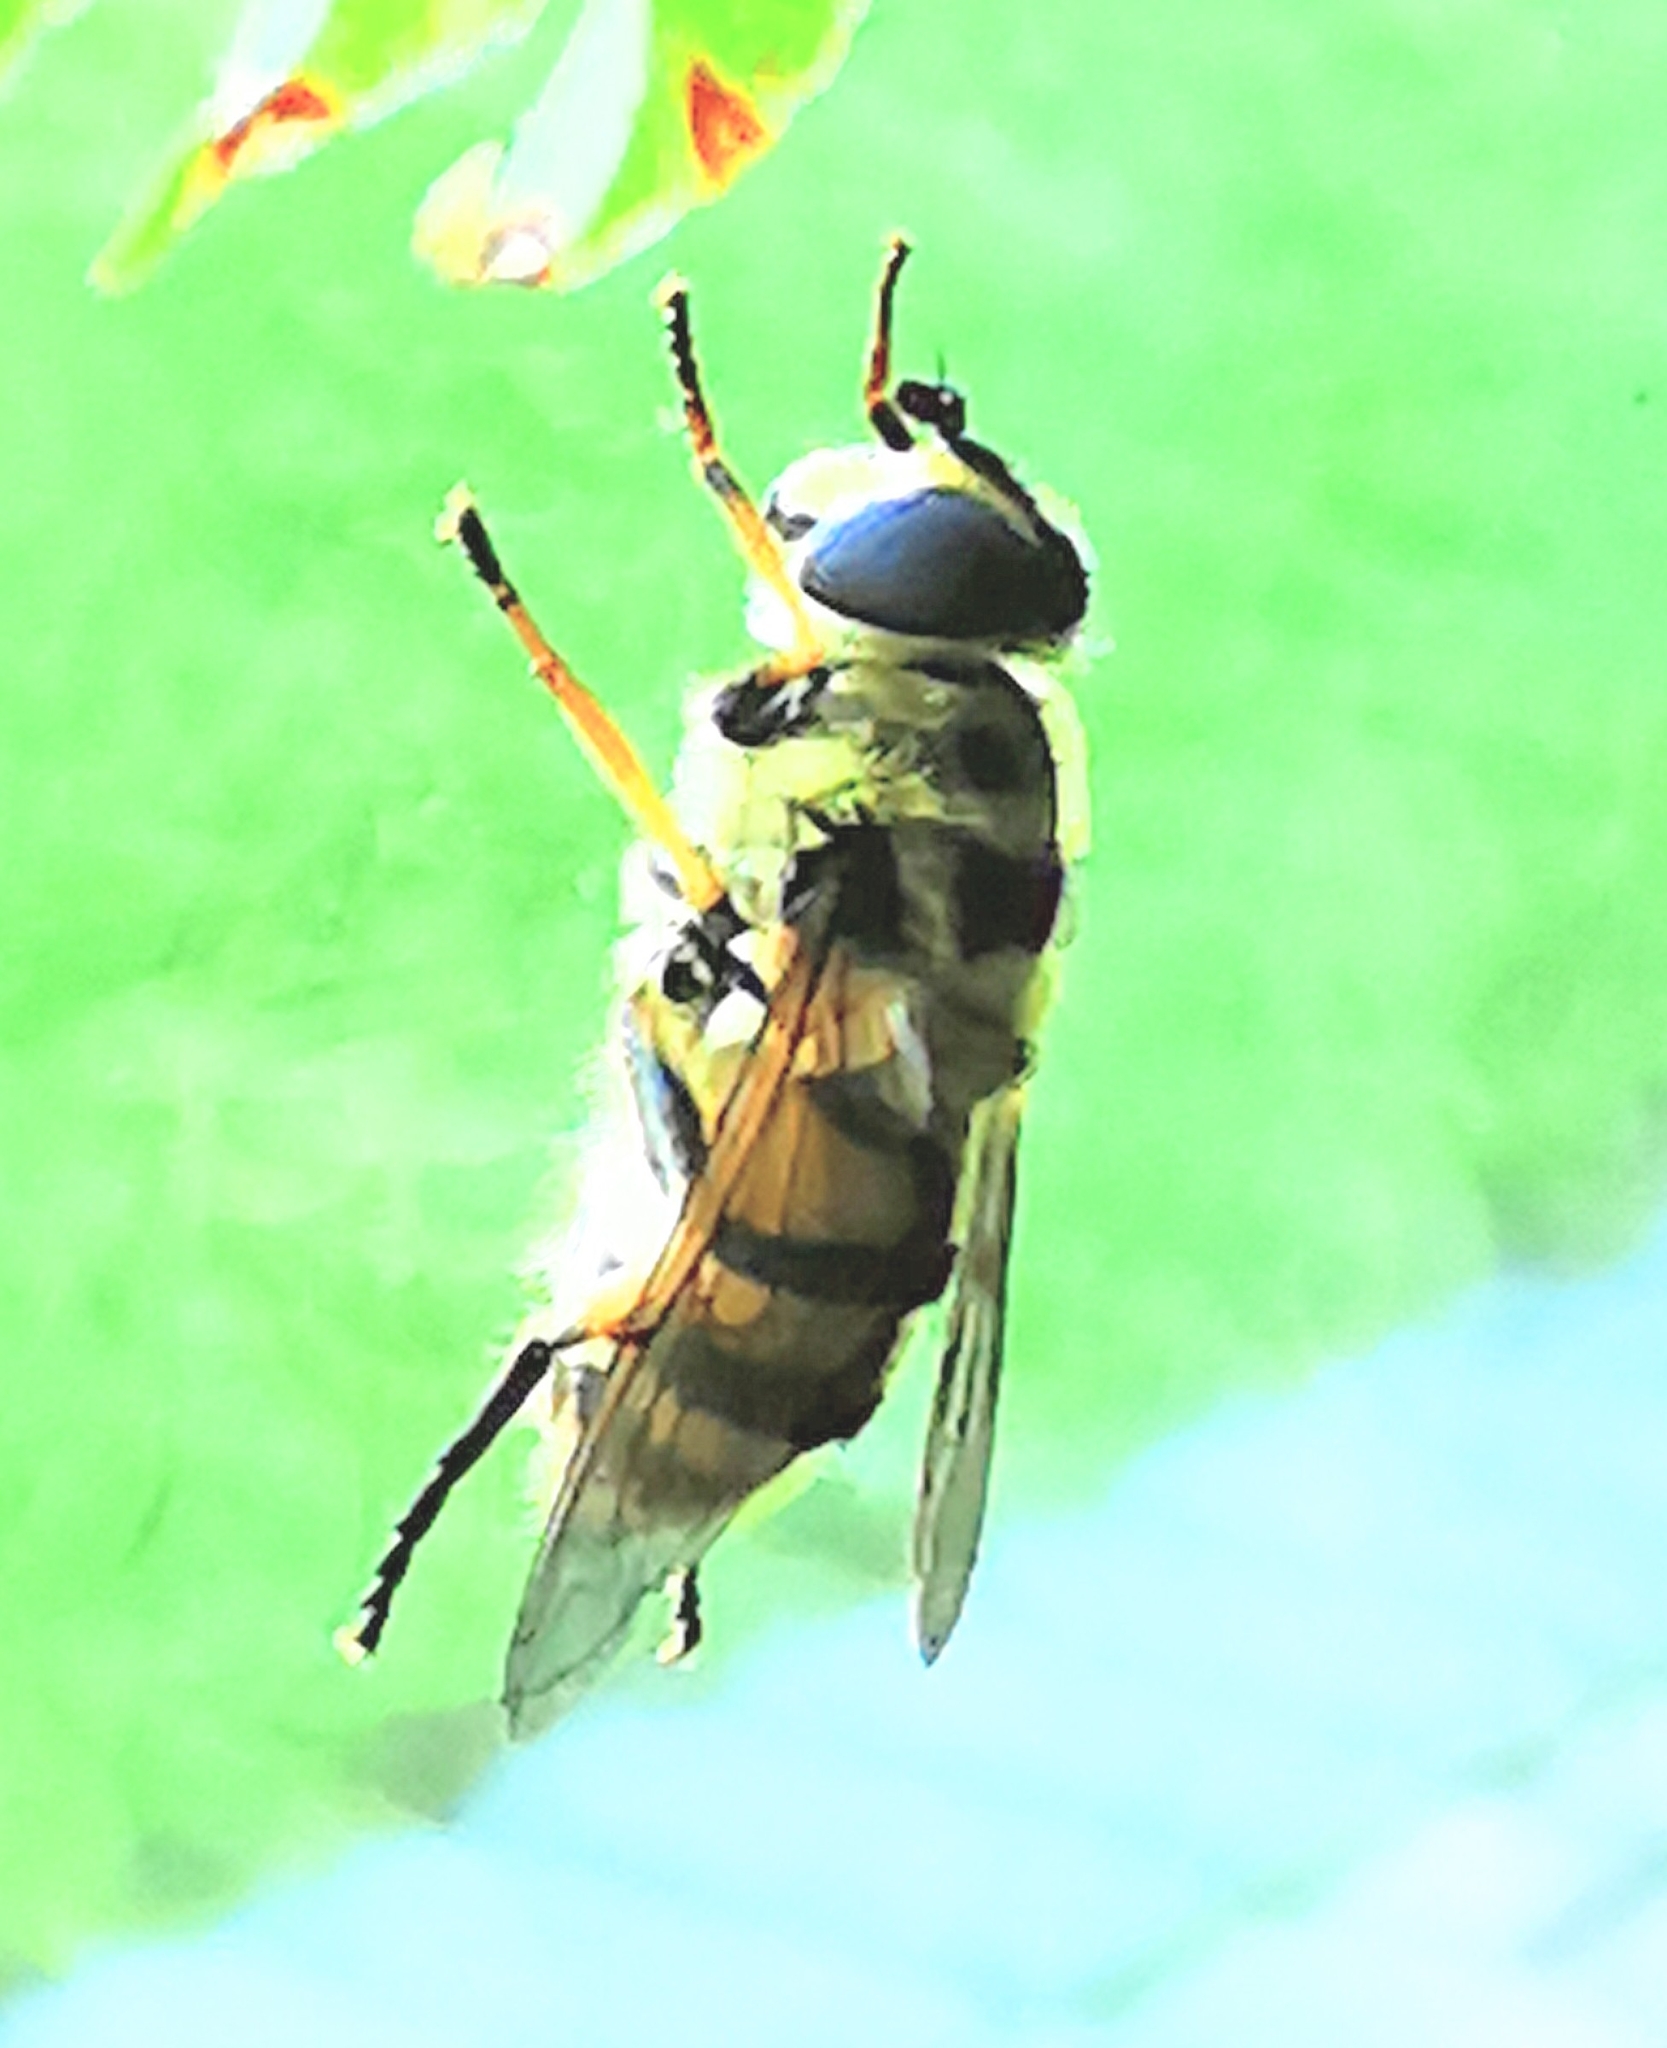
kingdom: Animalia
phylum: Arthropoda
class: Insecta
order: Diptera
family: Syrphidae
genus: Myathropa
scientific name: Myathropa florea
